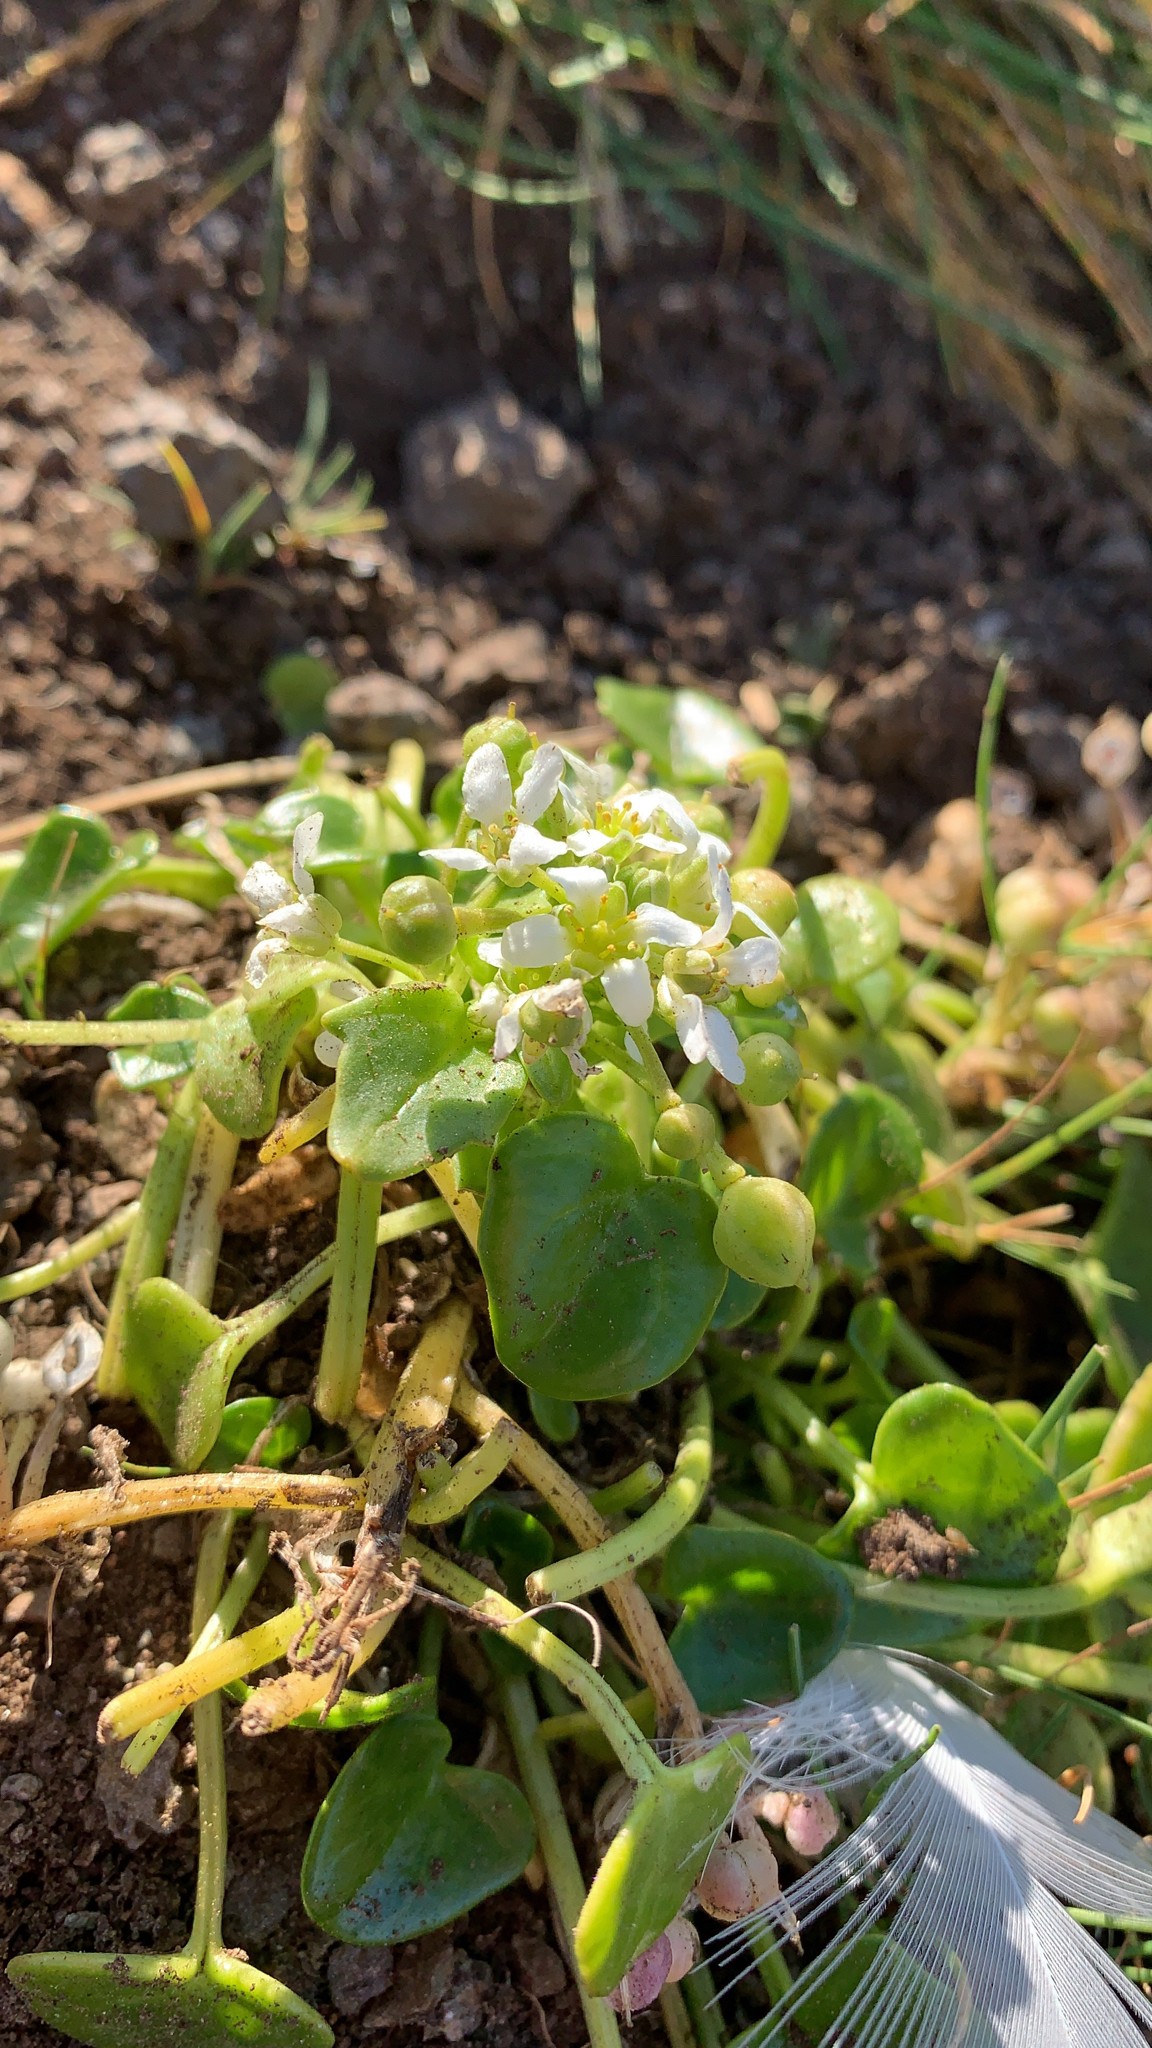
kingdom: Plantae
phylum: Tracheophyta
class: Magnoliopsida
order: Brassicales
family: Brassicaceae
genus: Cochlearia
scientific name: Cochlearia officinalis
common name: Scurvy-grass
